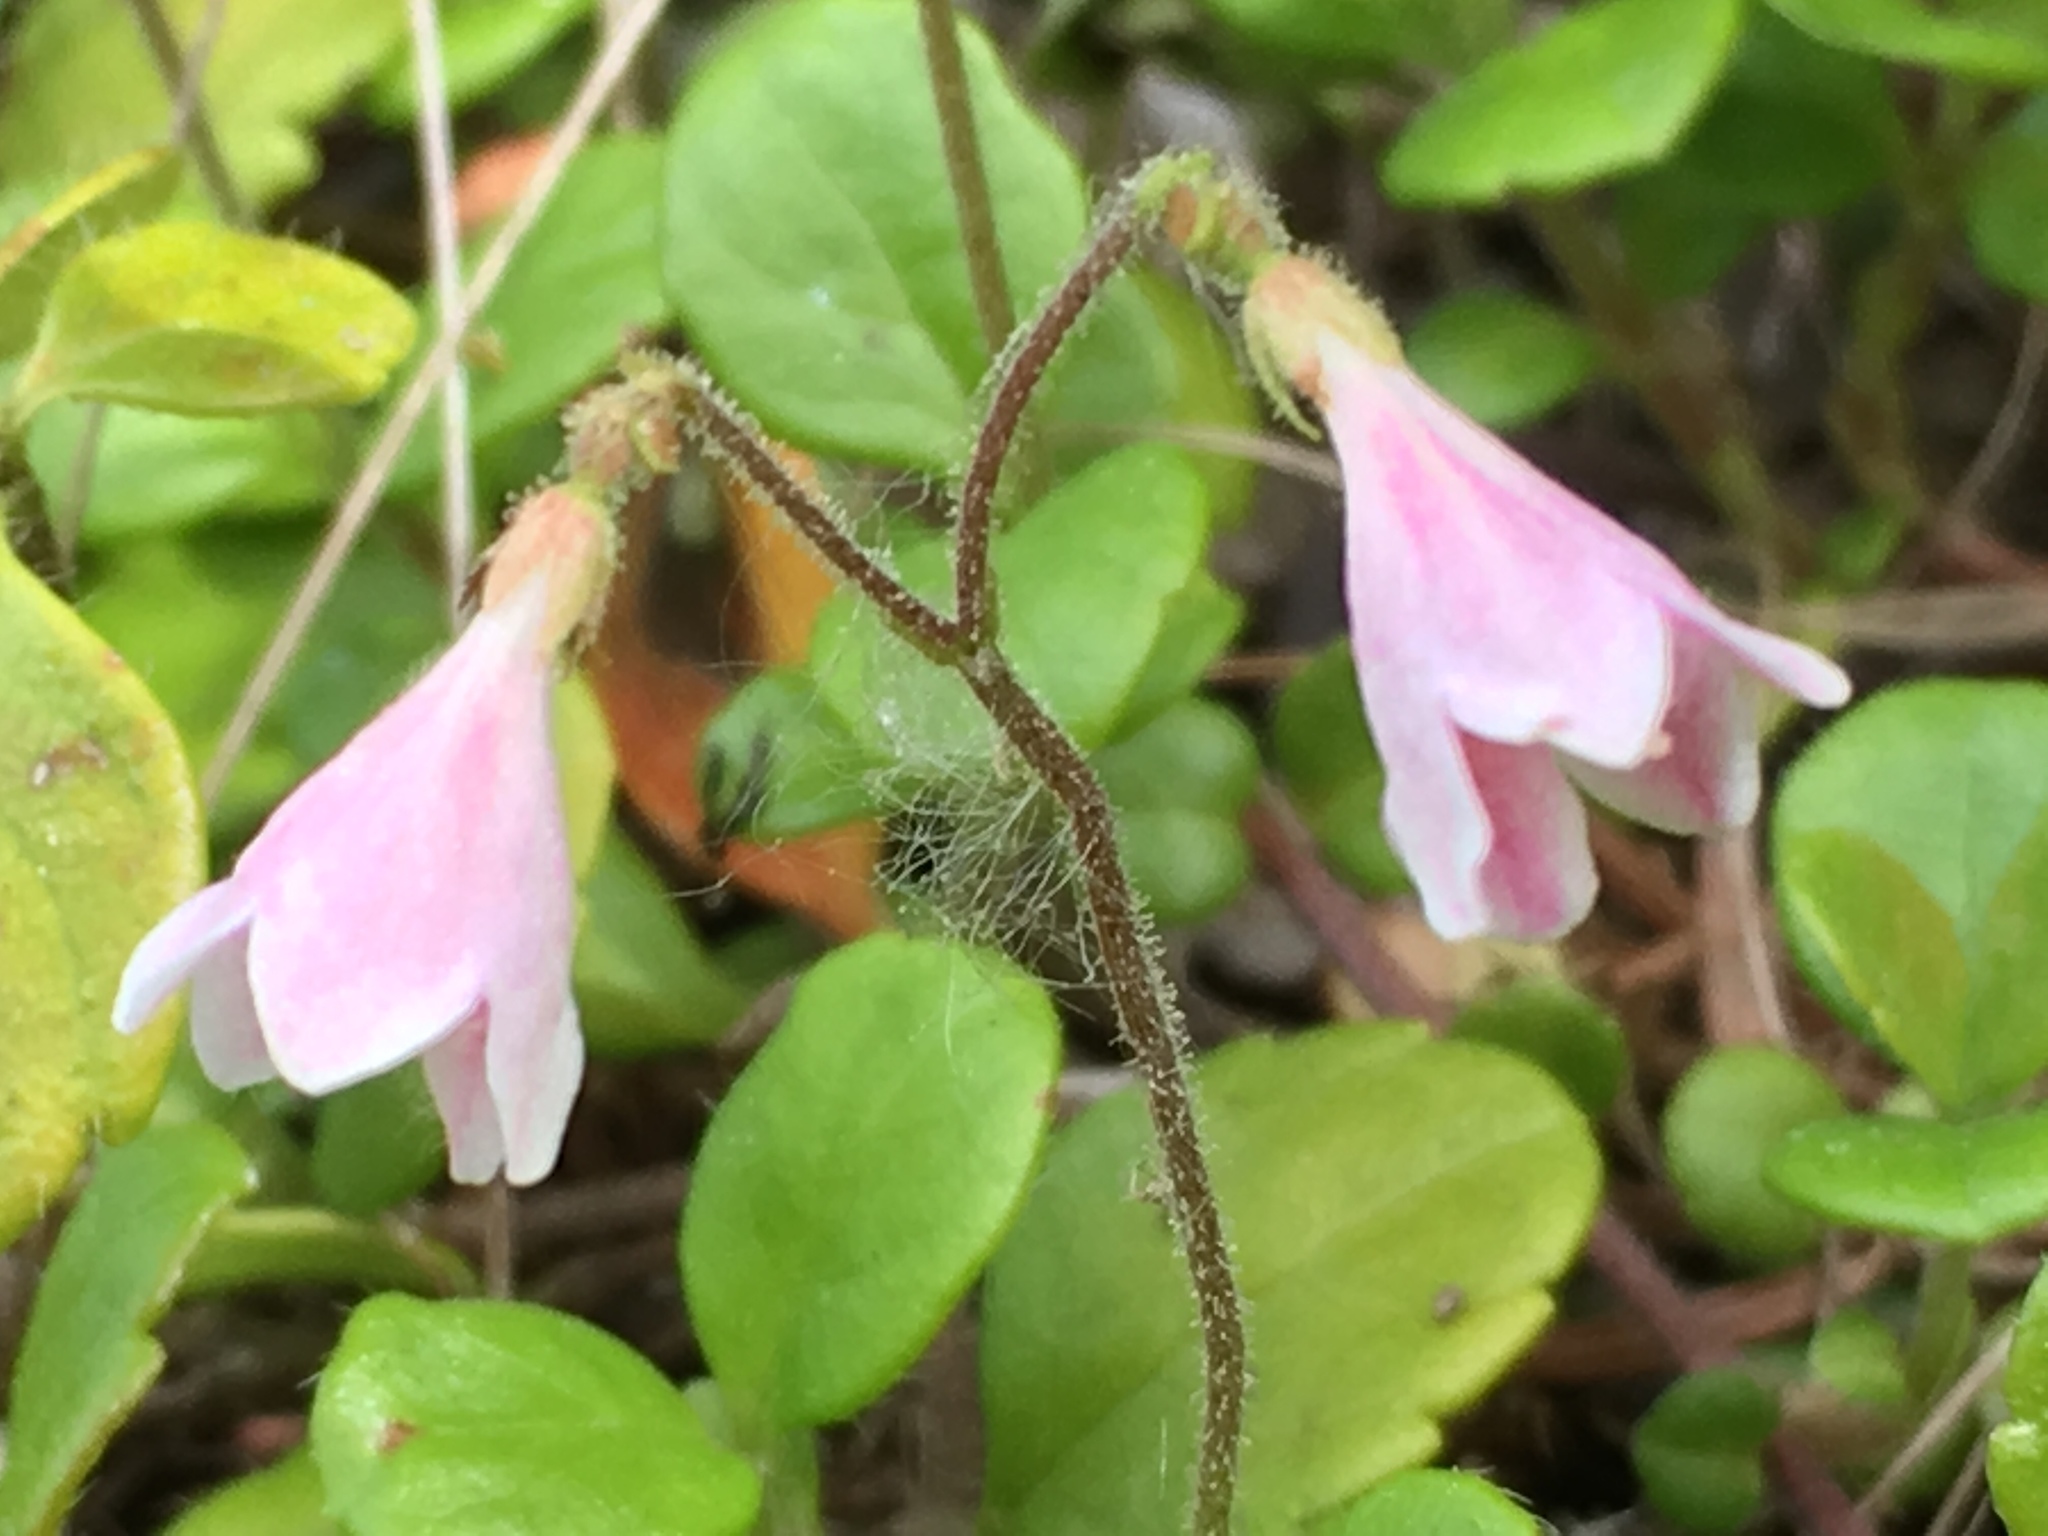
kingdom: Plantae
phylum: Tracheophyta
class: Magnoliopsida
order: Dipsacales
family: Caprifoliaceae
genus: Linnaea
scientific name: Linnaea borealis
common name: Twinflower
